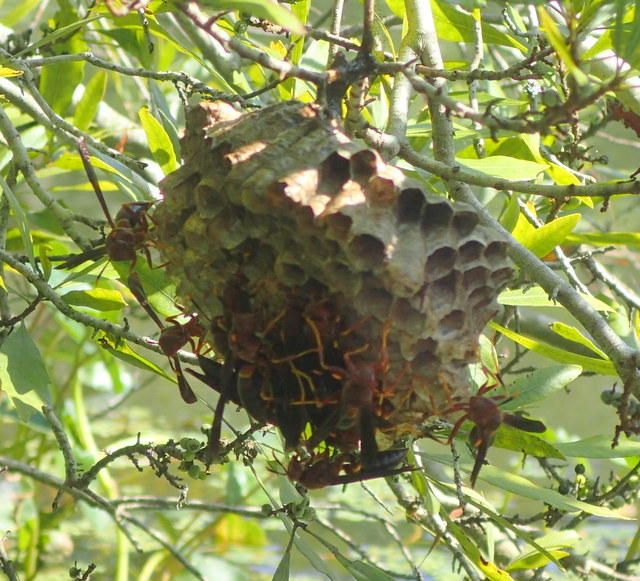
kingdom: Animalia
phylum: Arthropoda
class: Insecta
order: Hymenoptera
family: Eumenidae
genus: Polistes
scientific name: Polistes annularis
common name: Ringed paper wasp
